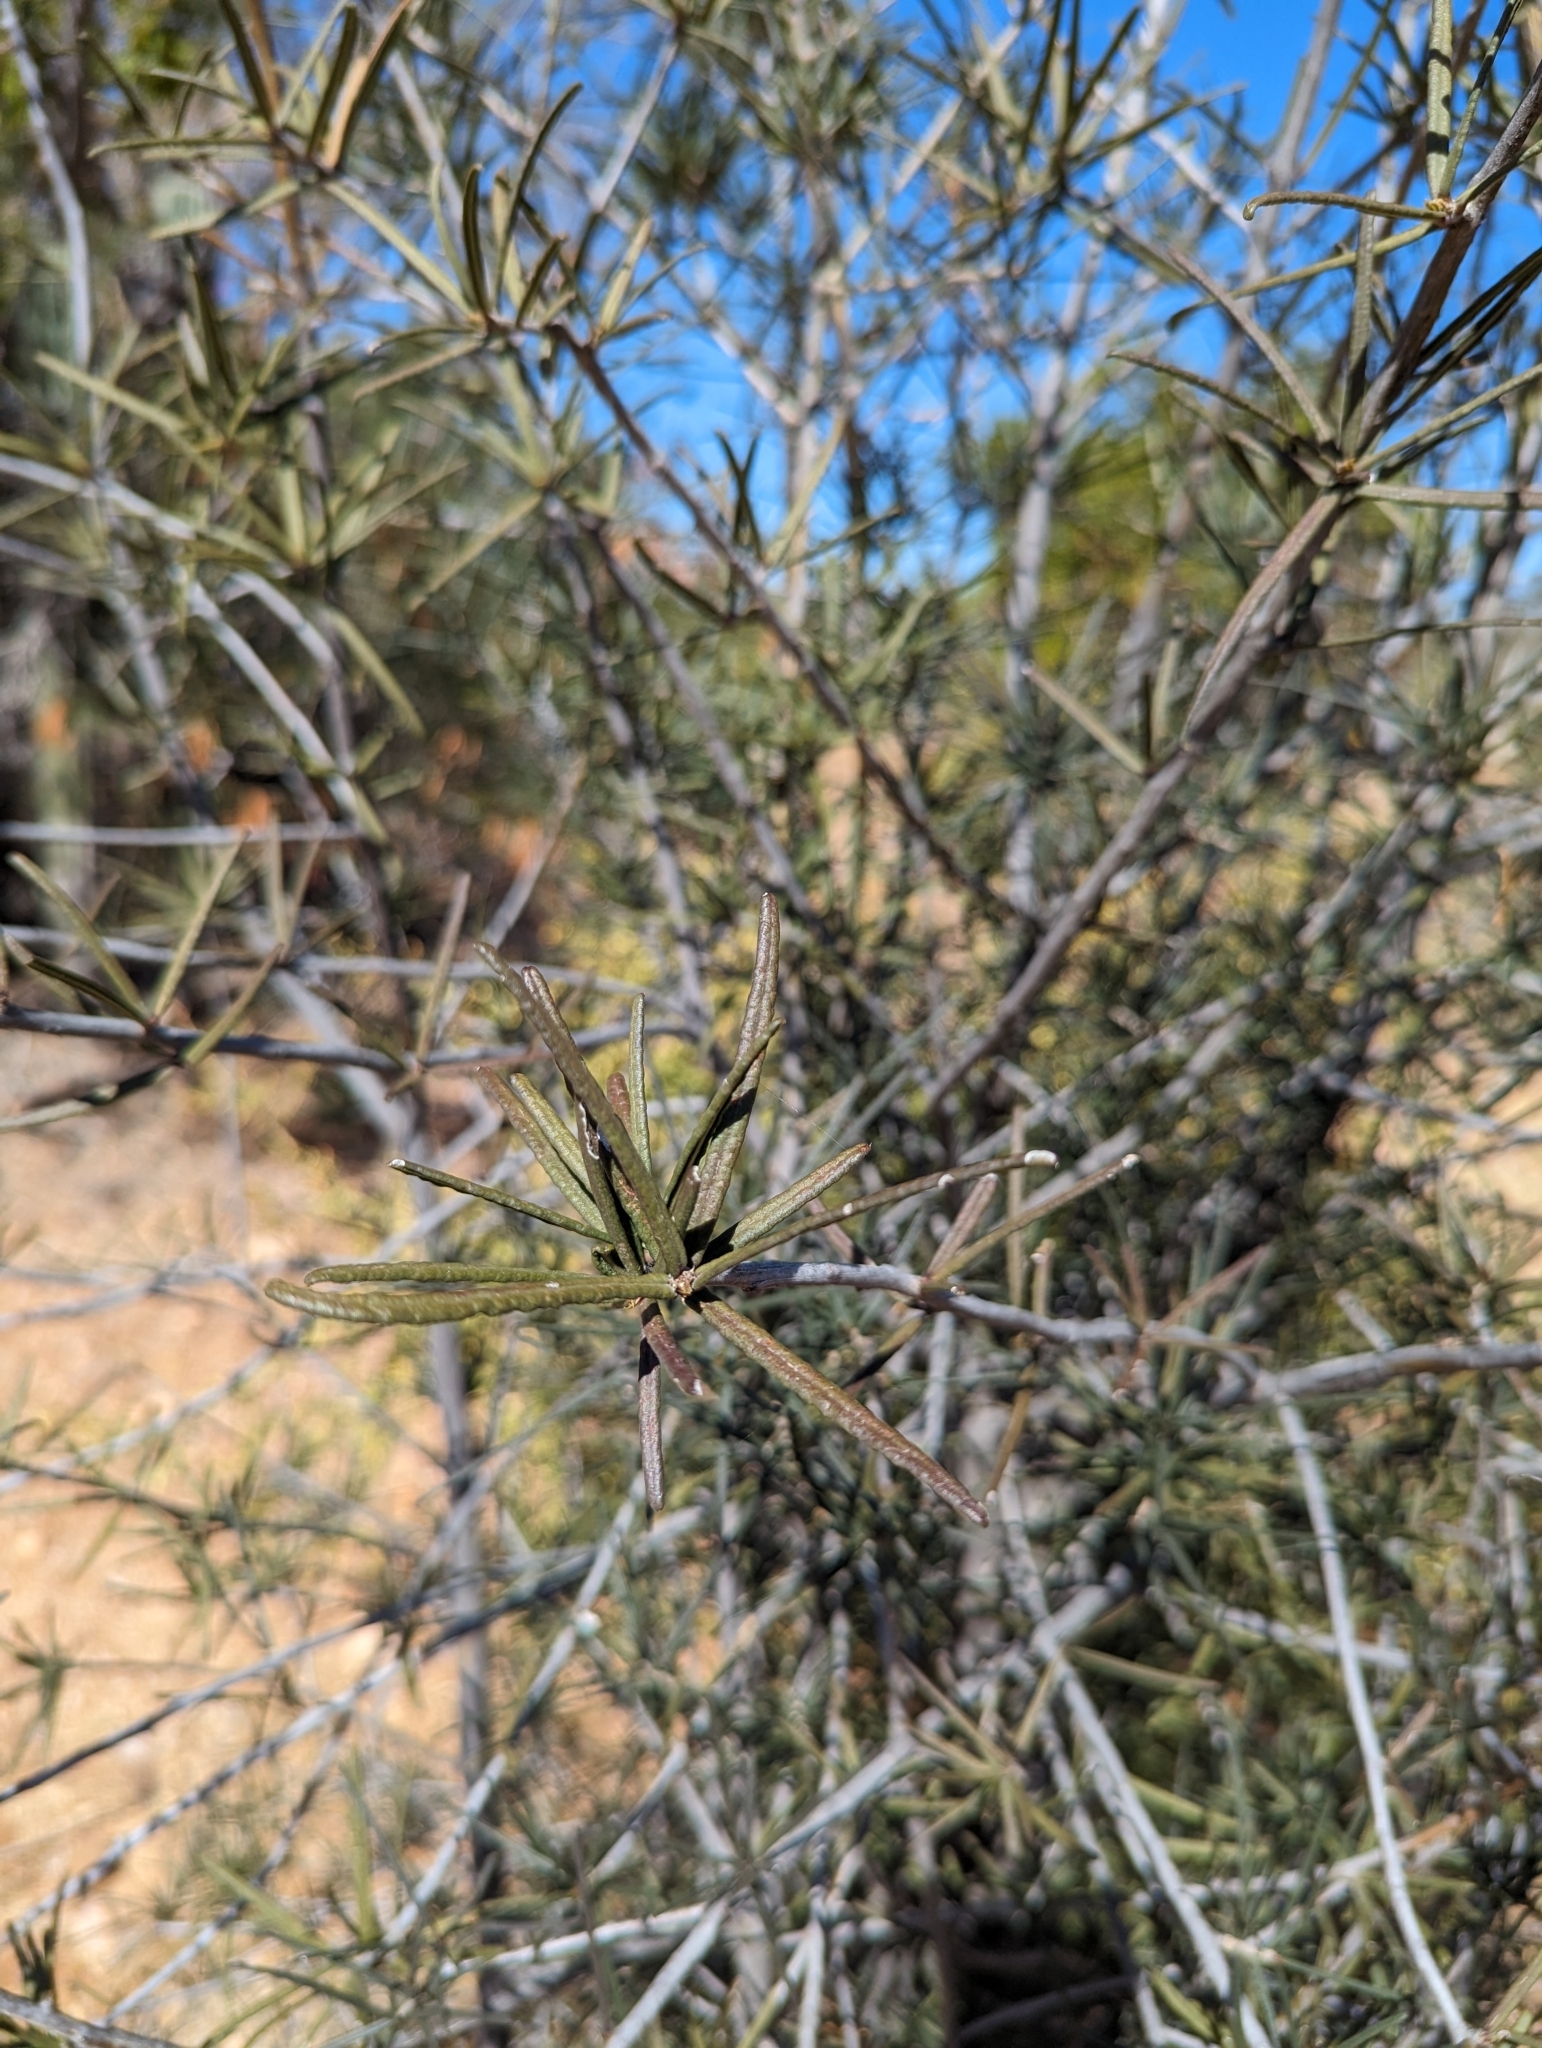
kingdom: Plantae
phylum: Tracheophyta
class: Magnoliopsida
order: Brassicales
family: Stixaceae
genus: Forchhammeria
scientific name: Forchhammeria watsonii
